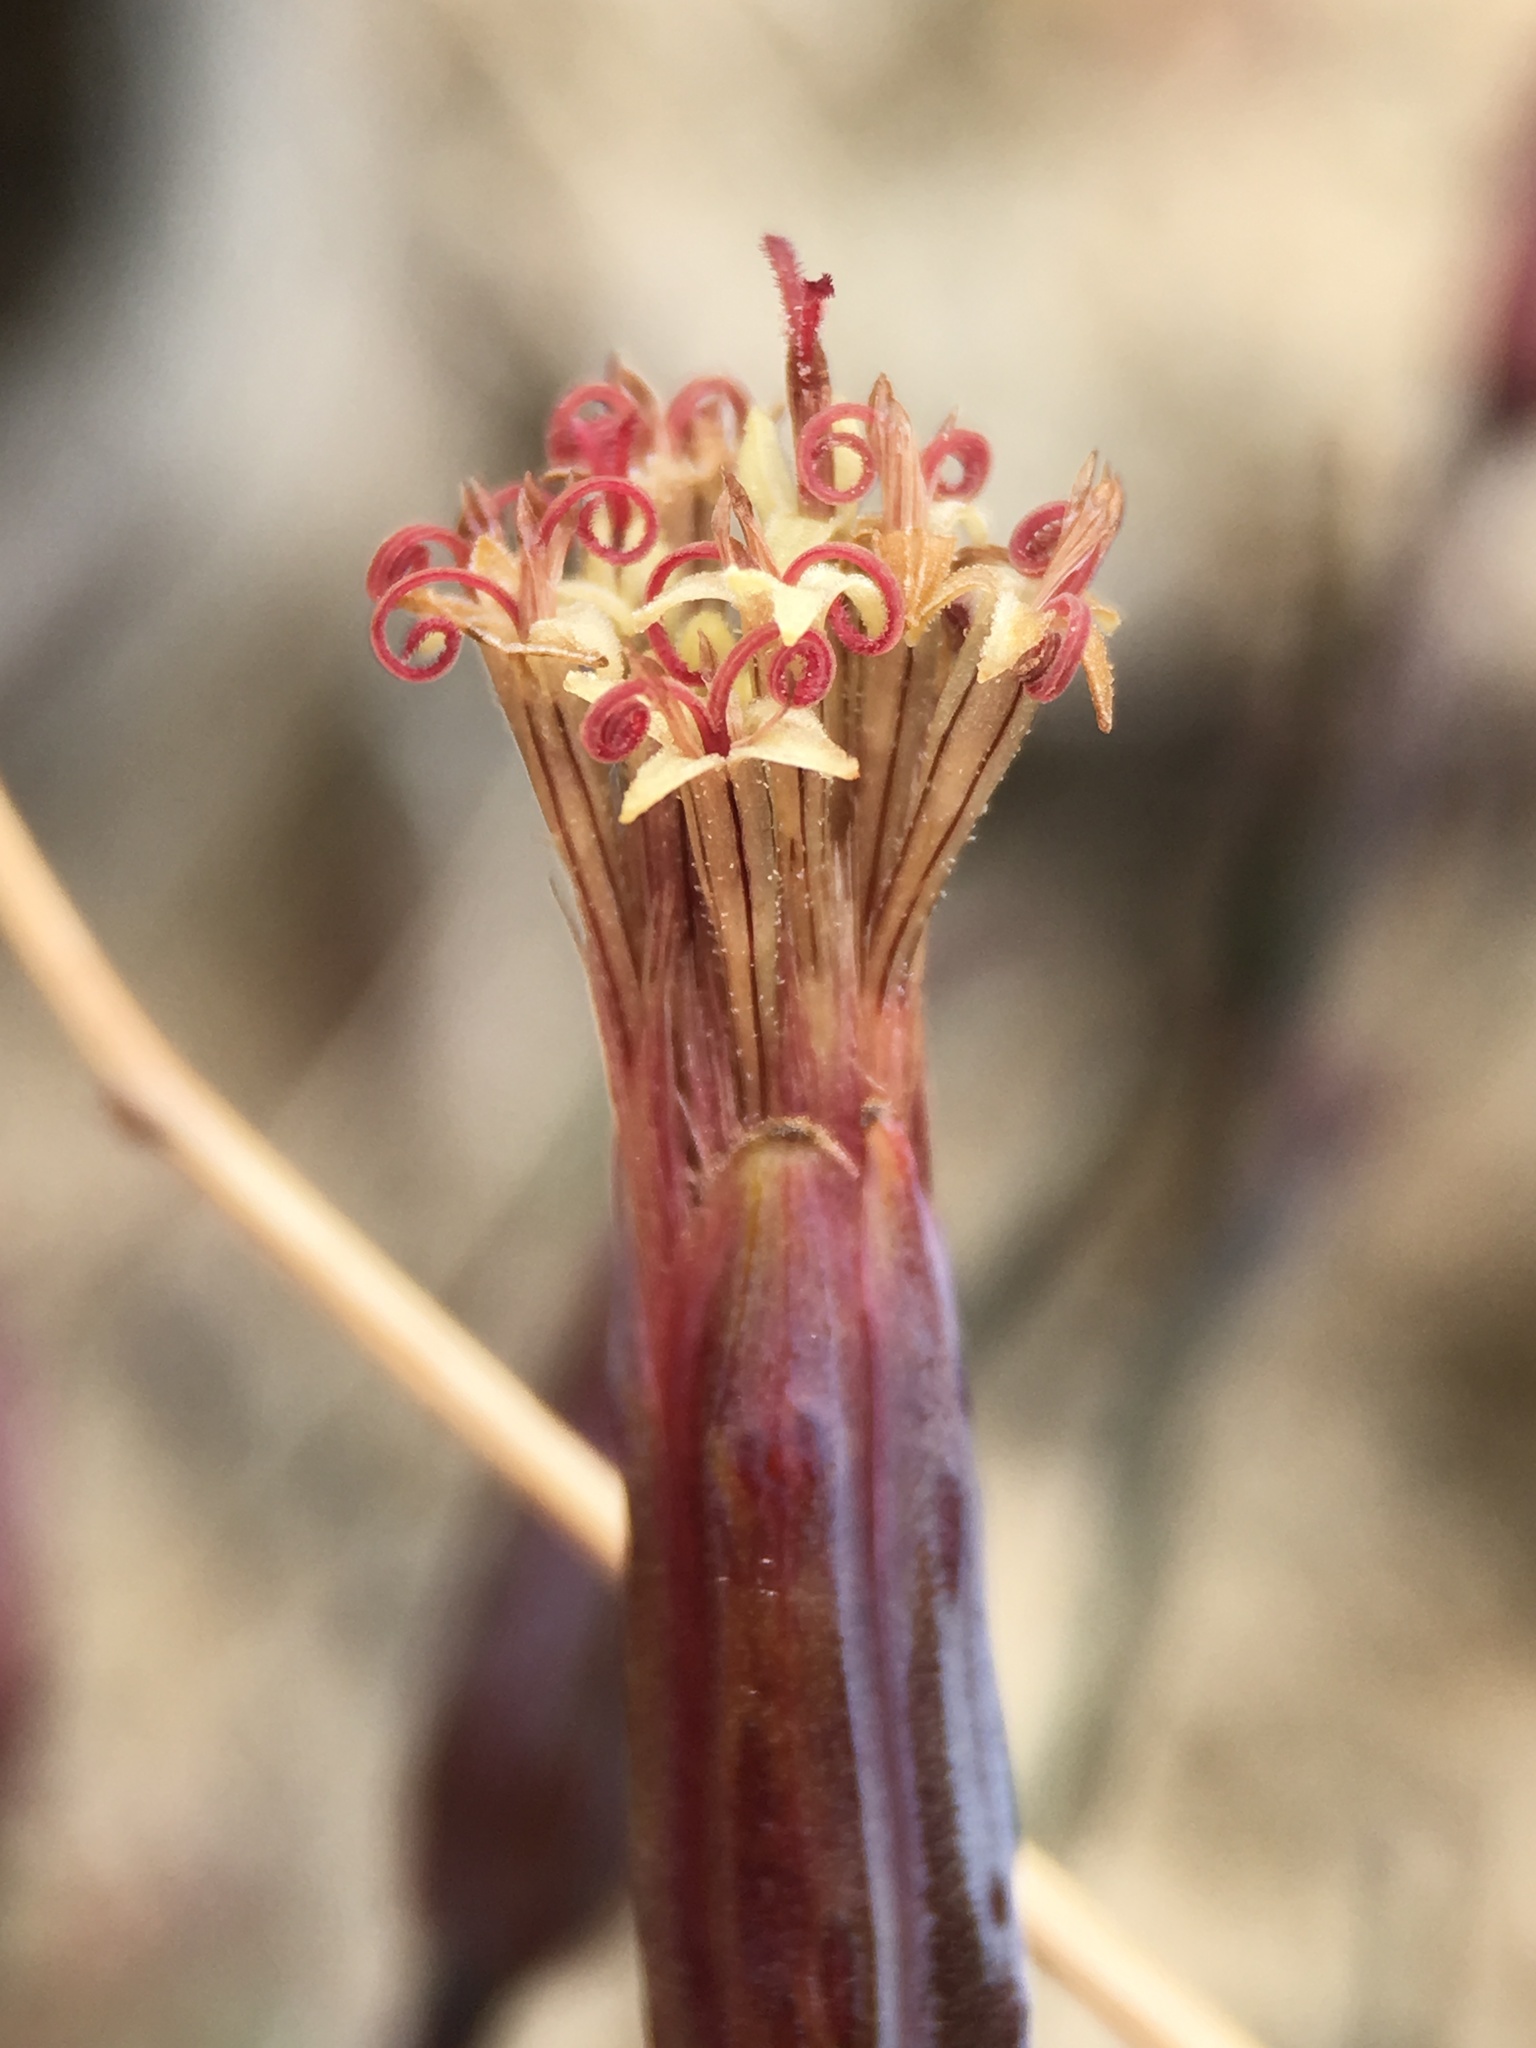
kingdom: Plantae
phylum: Tracheophyta
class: Magnoliopsida
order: Asterales
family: Asteraceae
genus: Porophyllum
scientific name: Porophyllum gracile
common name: Odora
